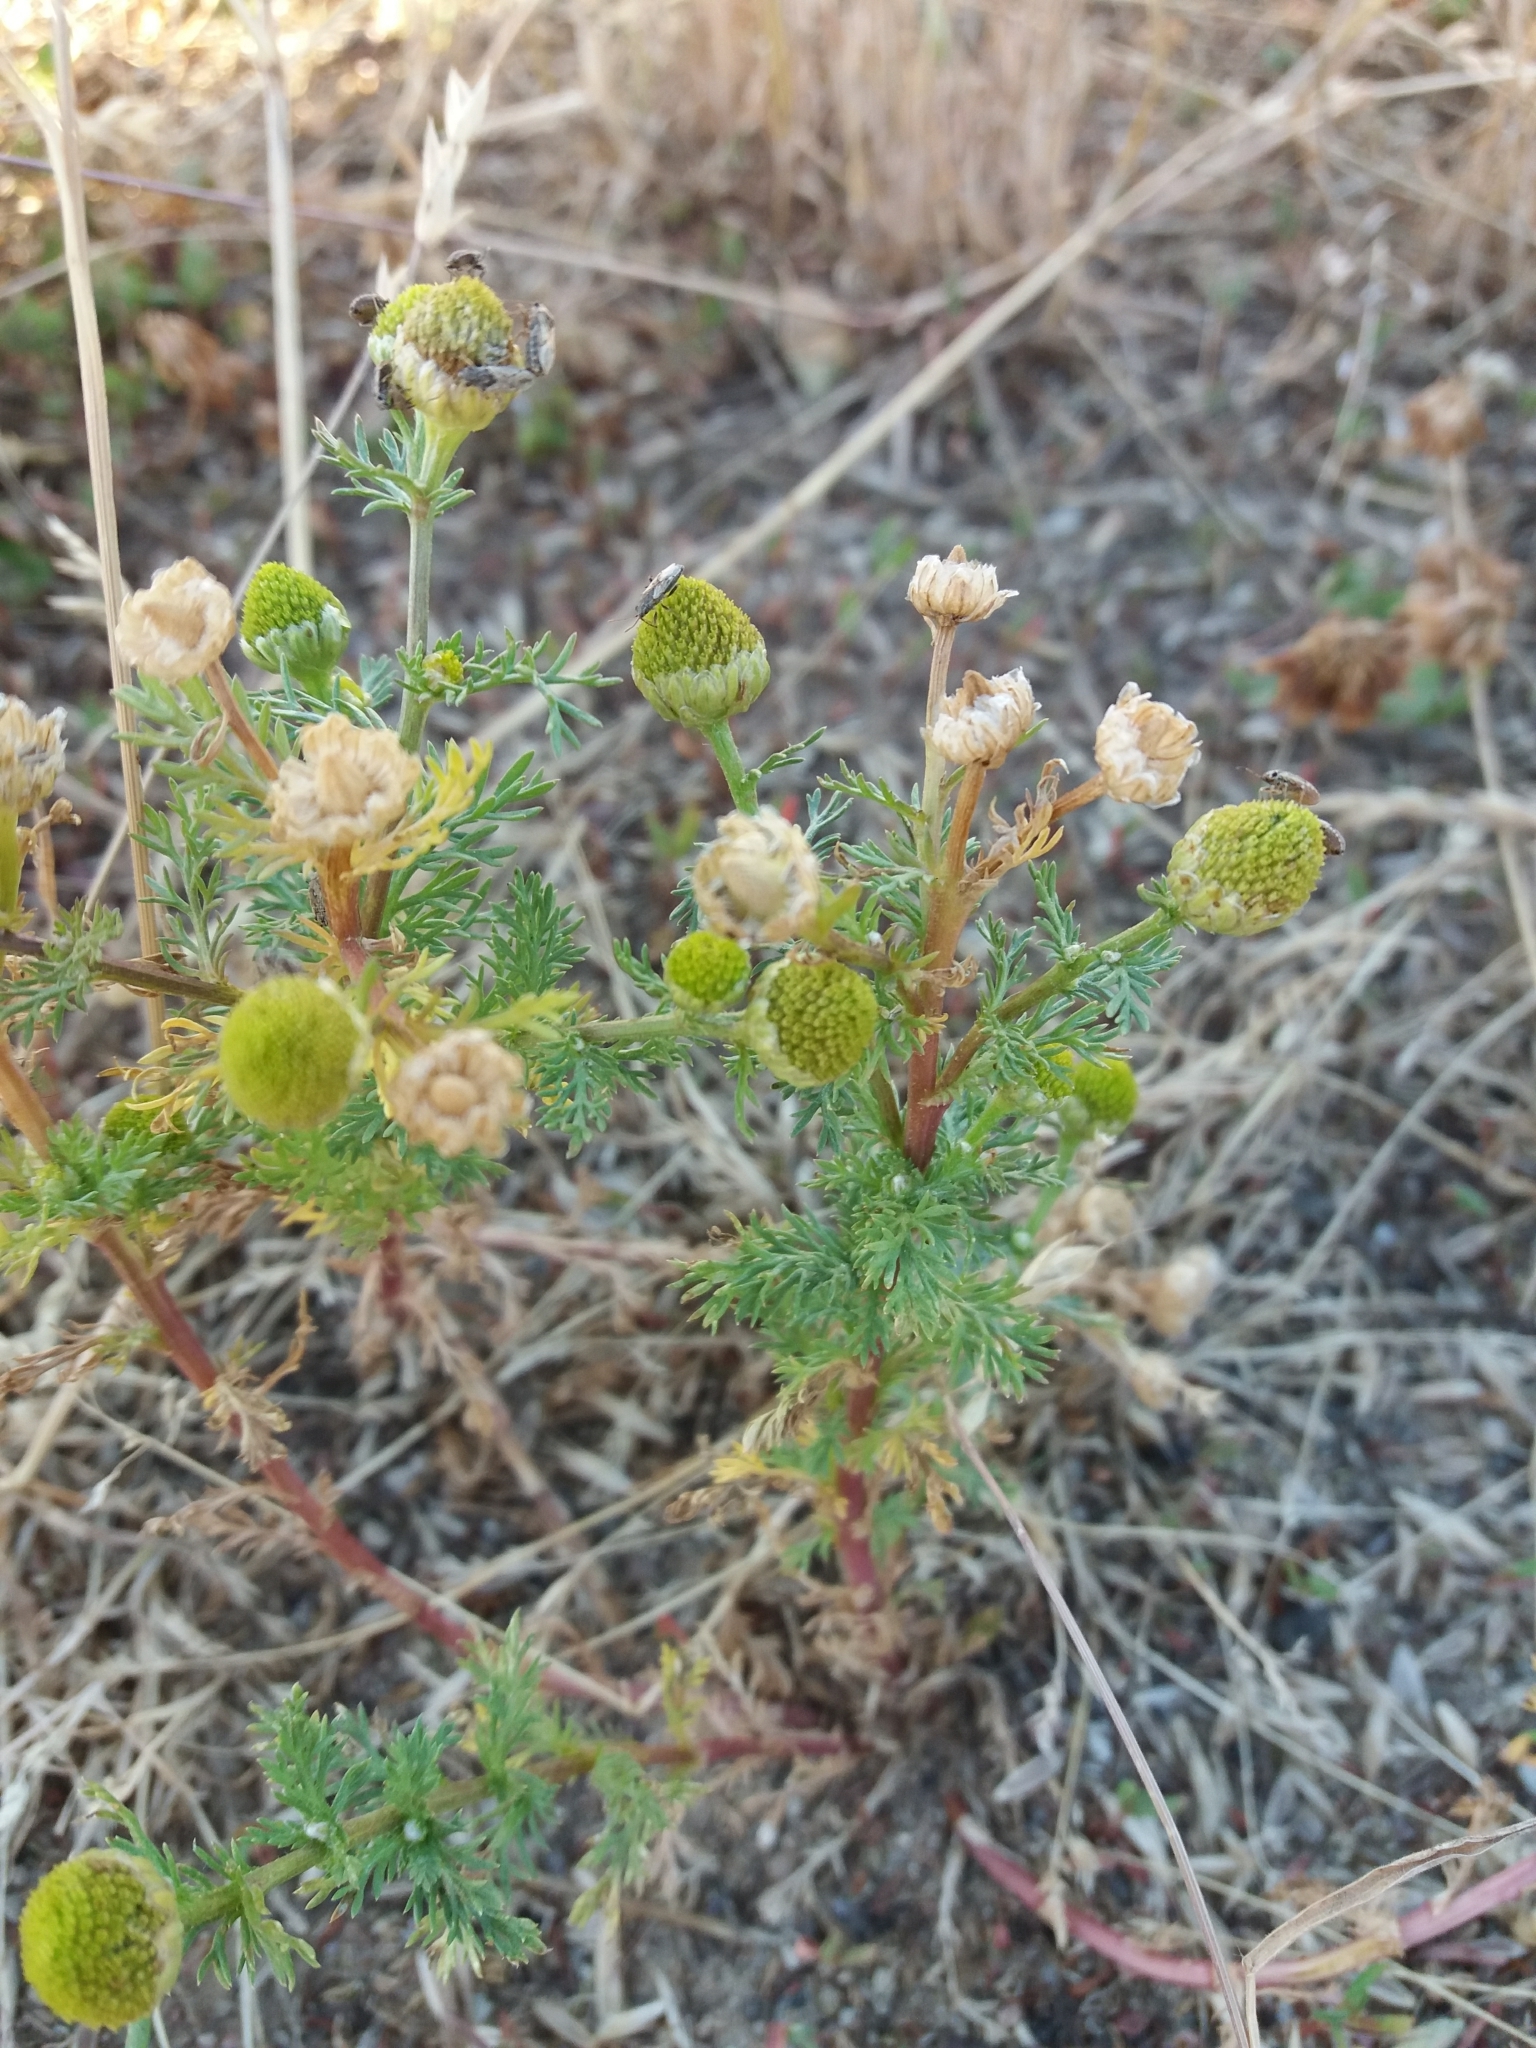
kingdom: Plantae
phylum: Tracheophyta
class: Magnoliopsida
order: Asterales
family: Asteraceae
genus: Matricaria
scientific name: Matricaria discoidea
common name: Disc mayweed
